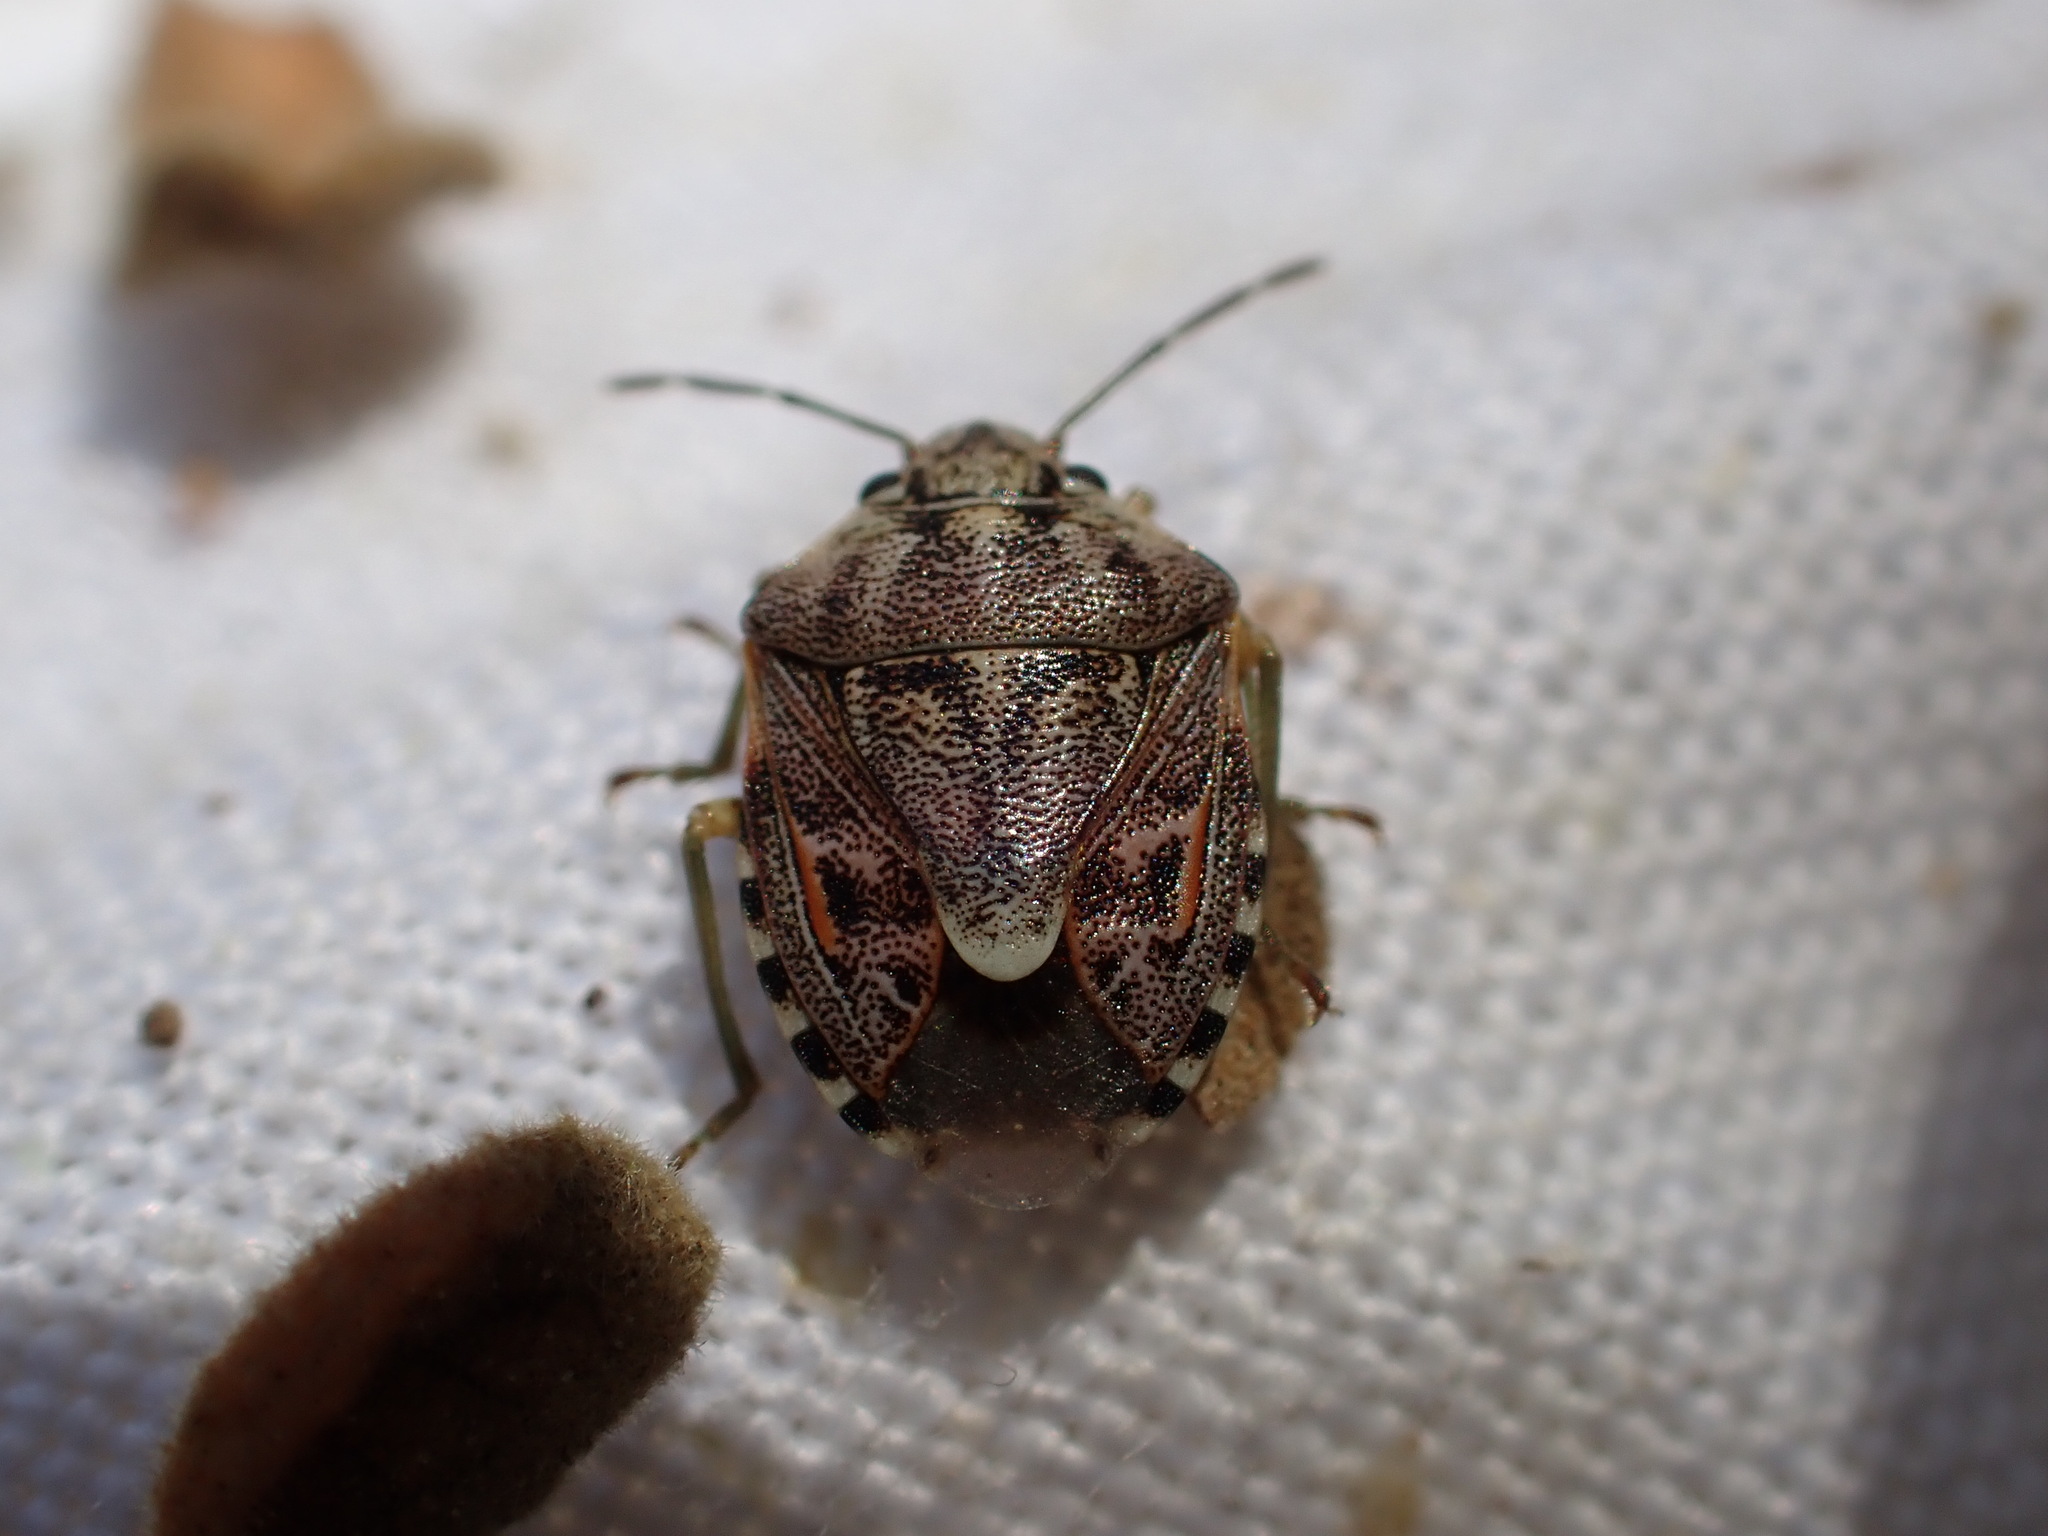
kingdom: Animalia
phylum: Arthropoda
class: Insecta
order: Hemiptera
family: Pentatomidae
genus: Holcogaster
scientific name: Holcogaster fibulata
